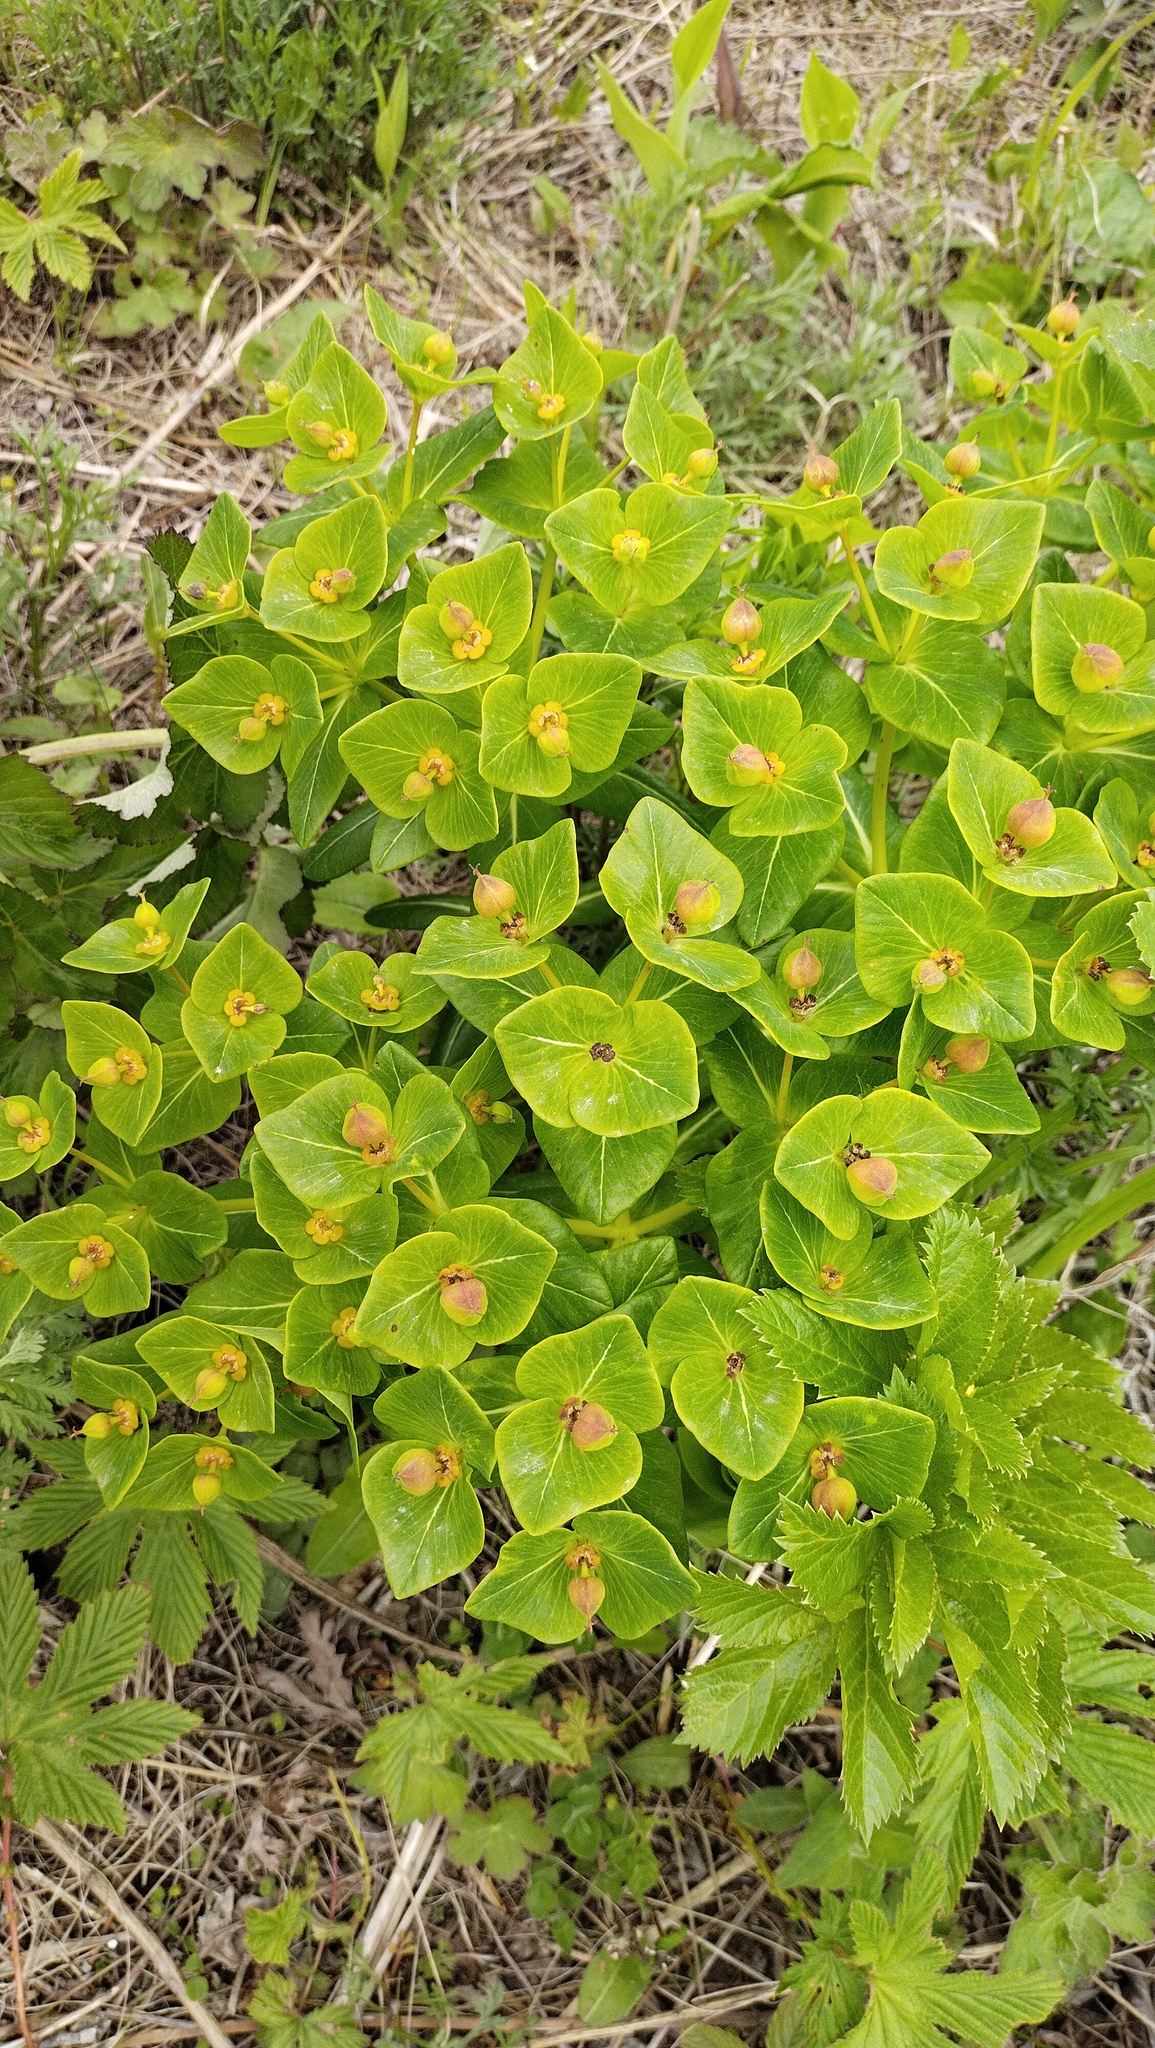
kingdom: Plantae
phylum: Tracheophyta
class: Magnoliopsida
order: Malpighiales
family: Euphorbiaceae
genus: Euphorbia
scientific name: Euphorbia hylonoma
